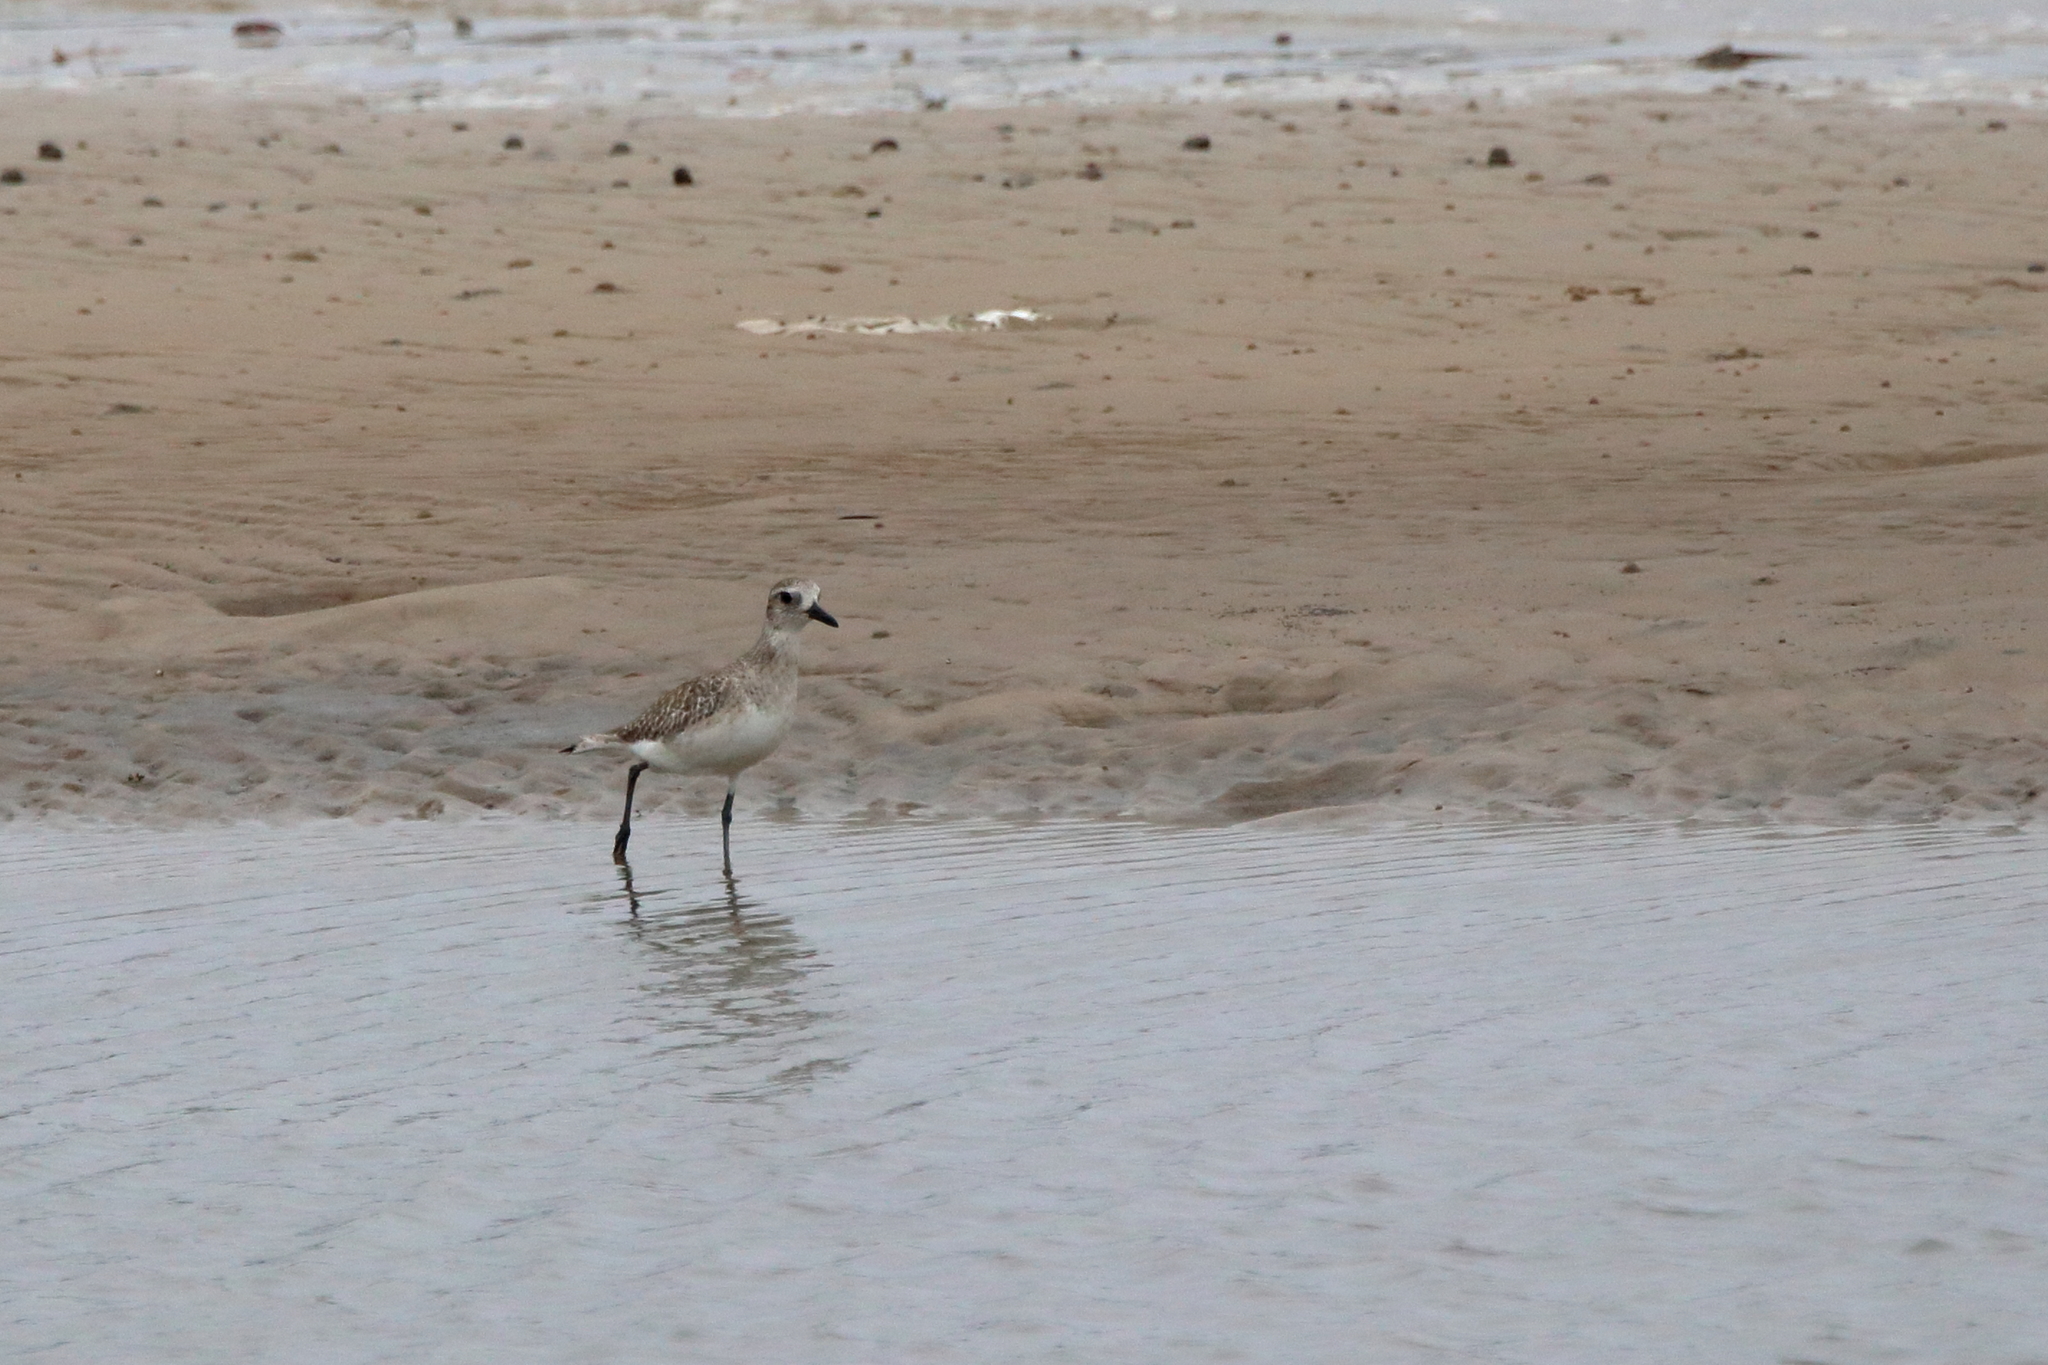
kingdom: Animalia
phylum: Chordata
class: Aves
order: Charadriiformes
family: Charadriidae
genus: Pluvialis
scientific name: Pluvialis squatarola
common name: Grey plover
